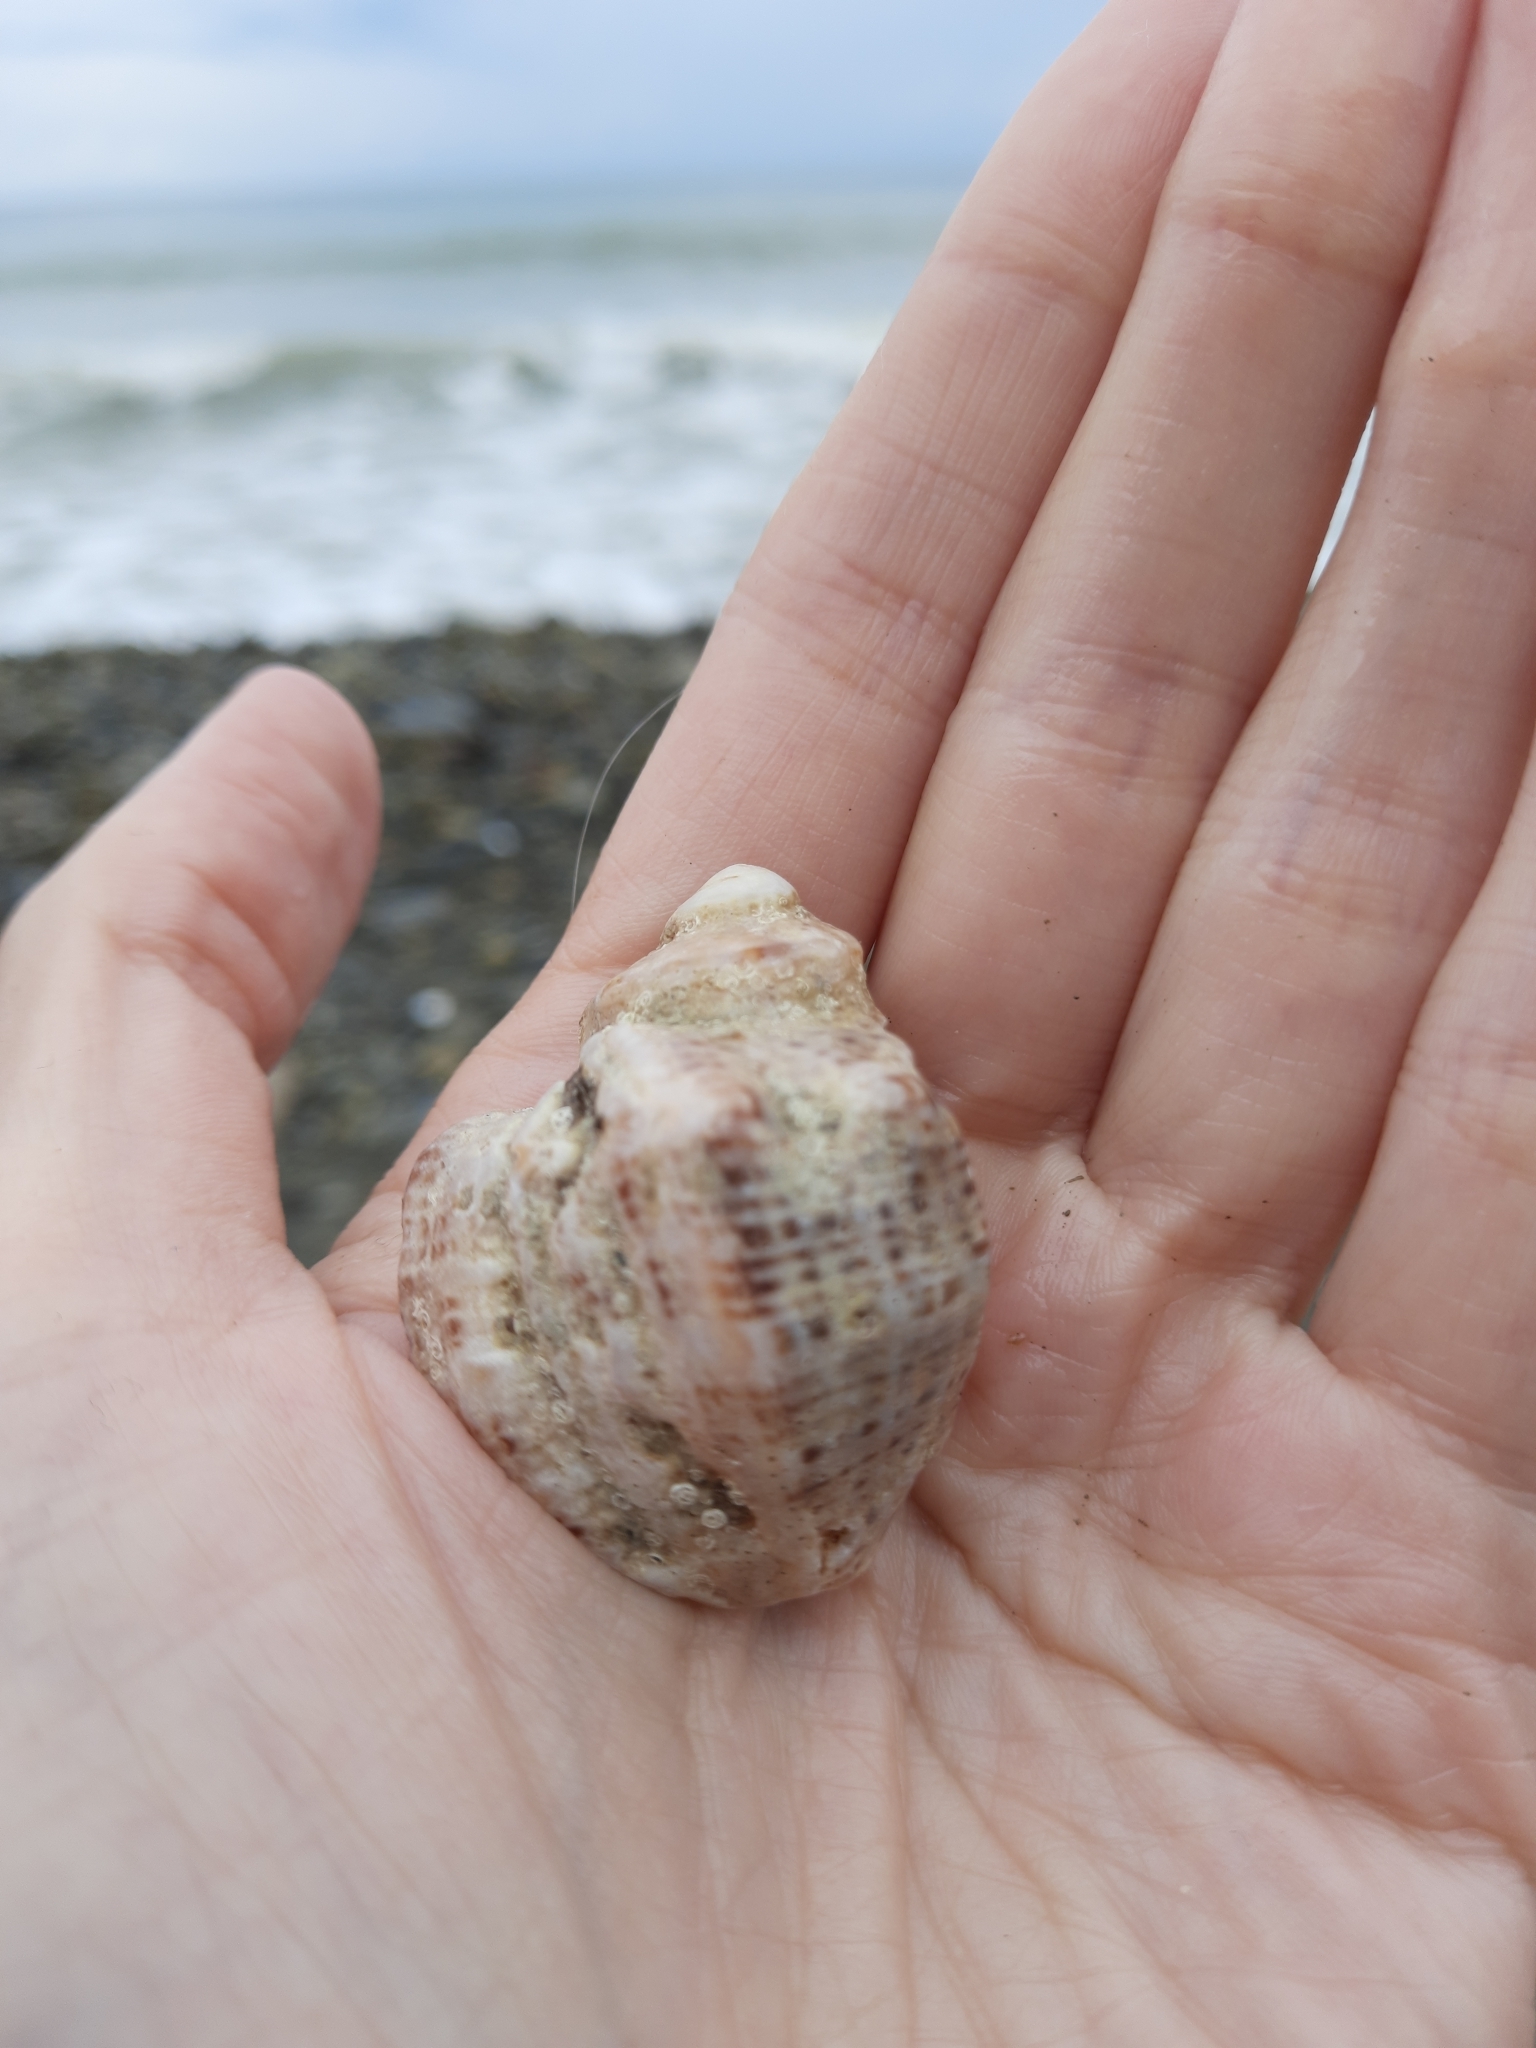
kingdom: Animalia
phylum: Mollusca
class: Gastropoda
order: Neogastropoda
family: Muricidae
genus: Rapana
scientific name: Rapana venosa
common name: Veined rapa whelk
